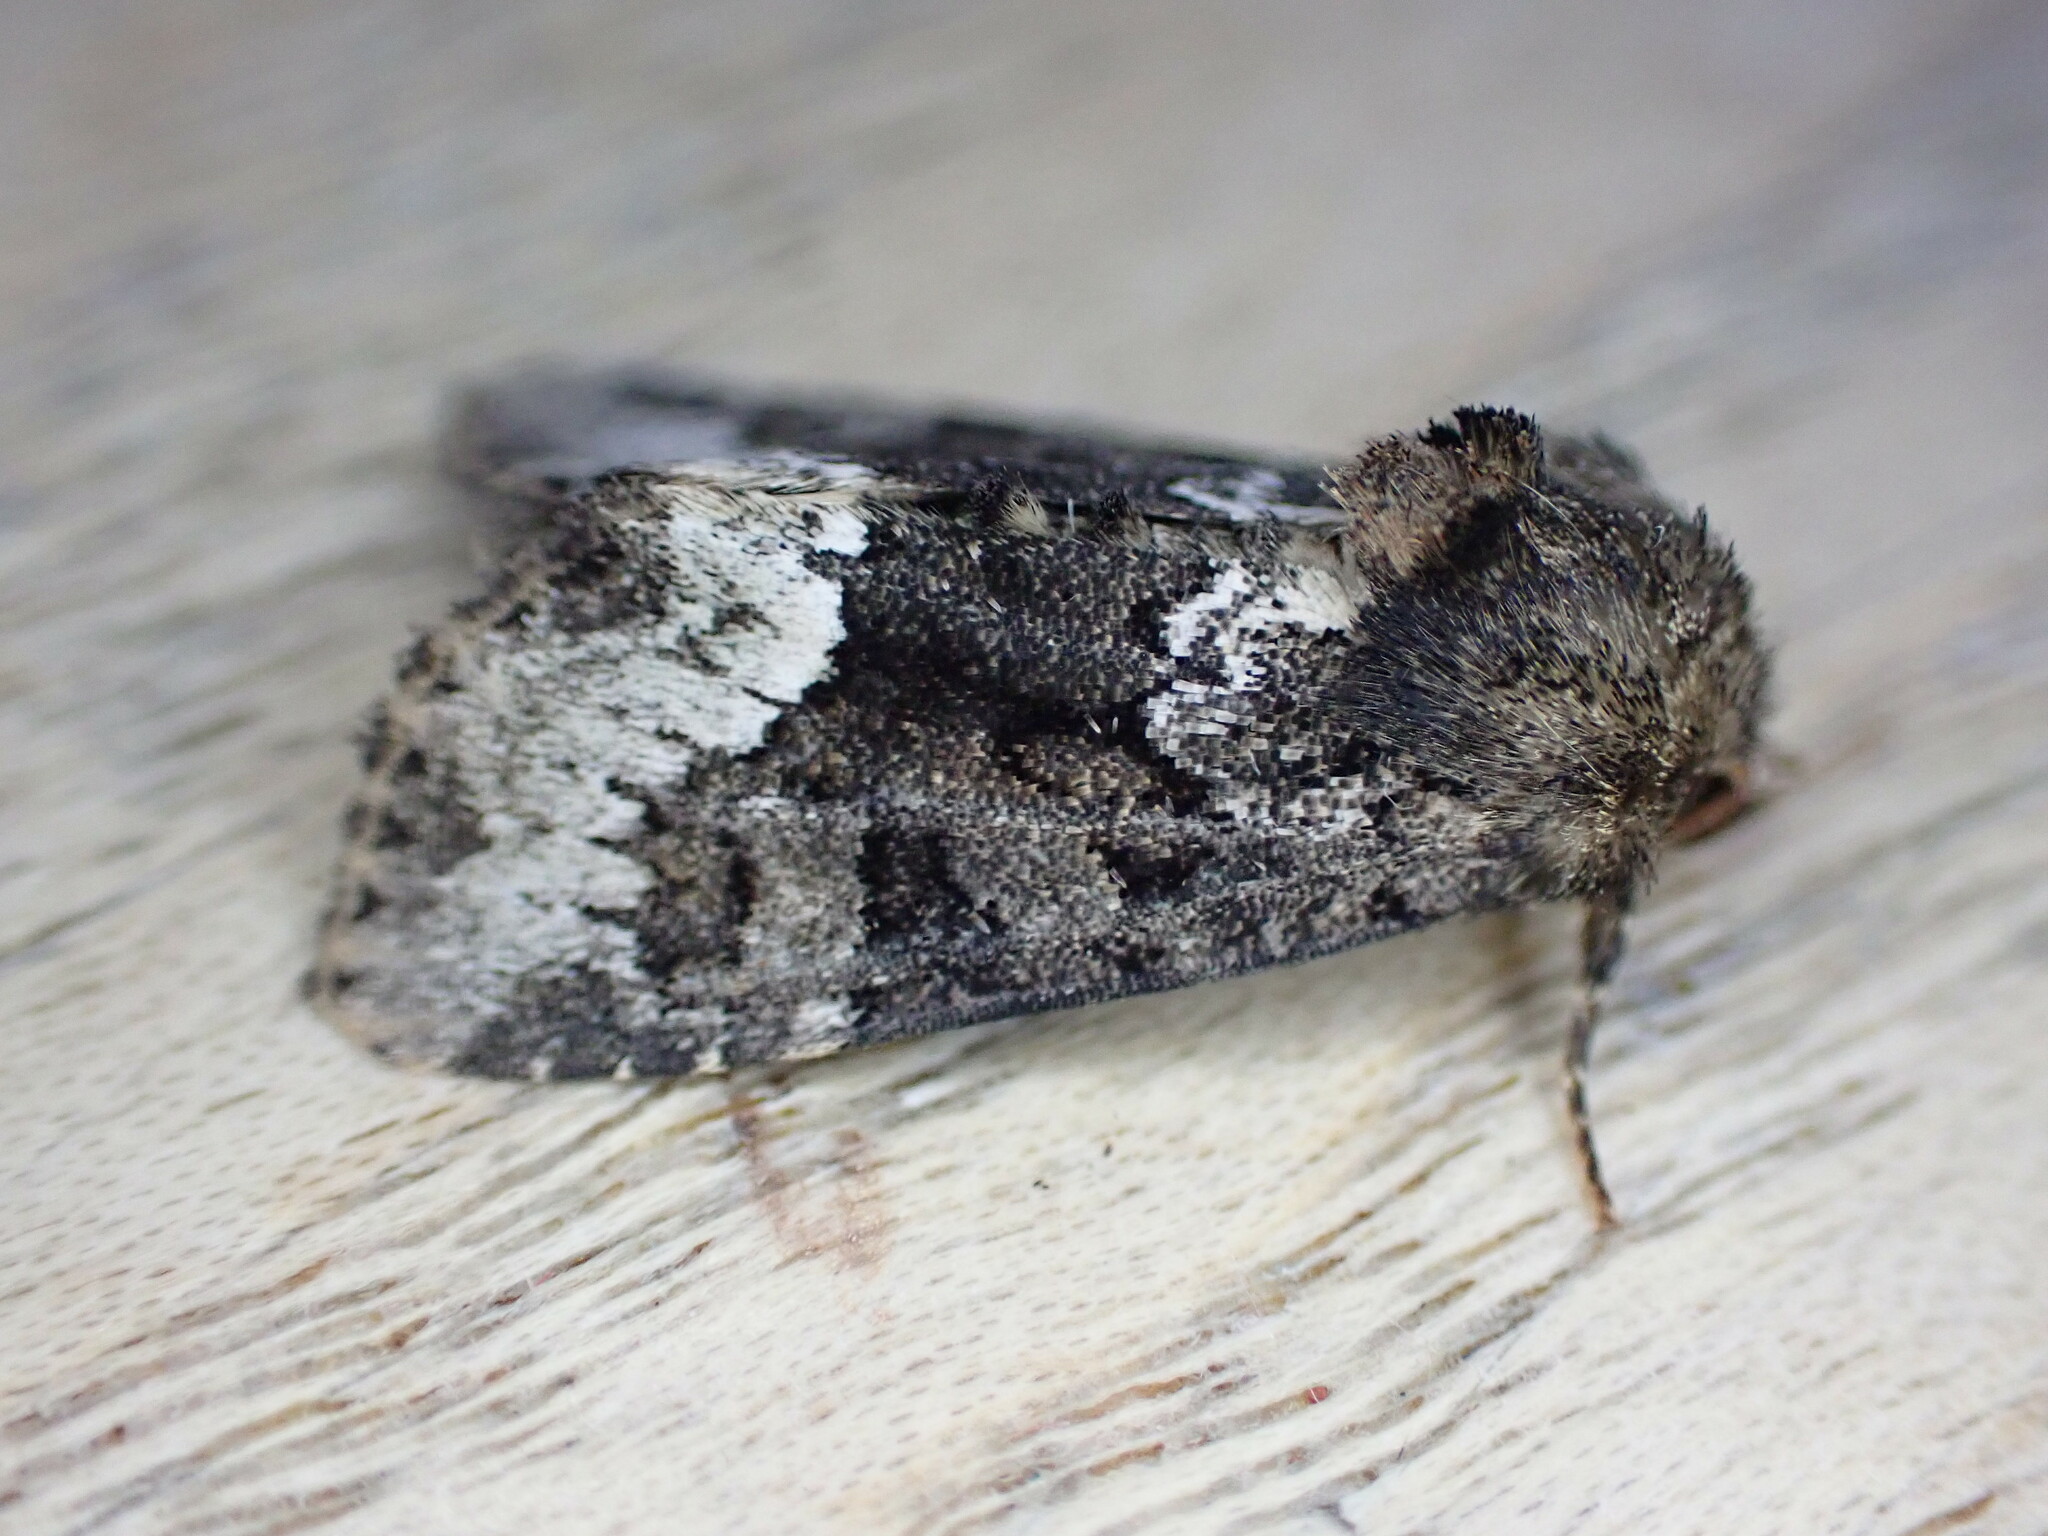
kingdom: Animalia
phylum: Arthropoda
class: Insecta
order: Lepidoptera
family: Noctuidae
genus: Oligia
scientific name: Oligia strigilis
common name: Marbled minor
